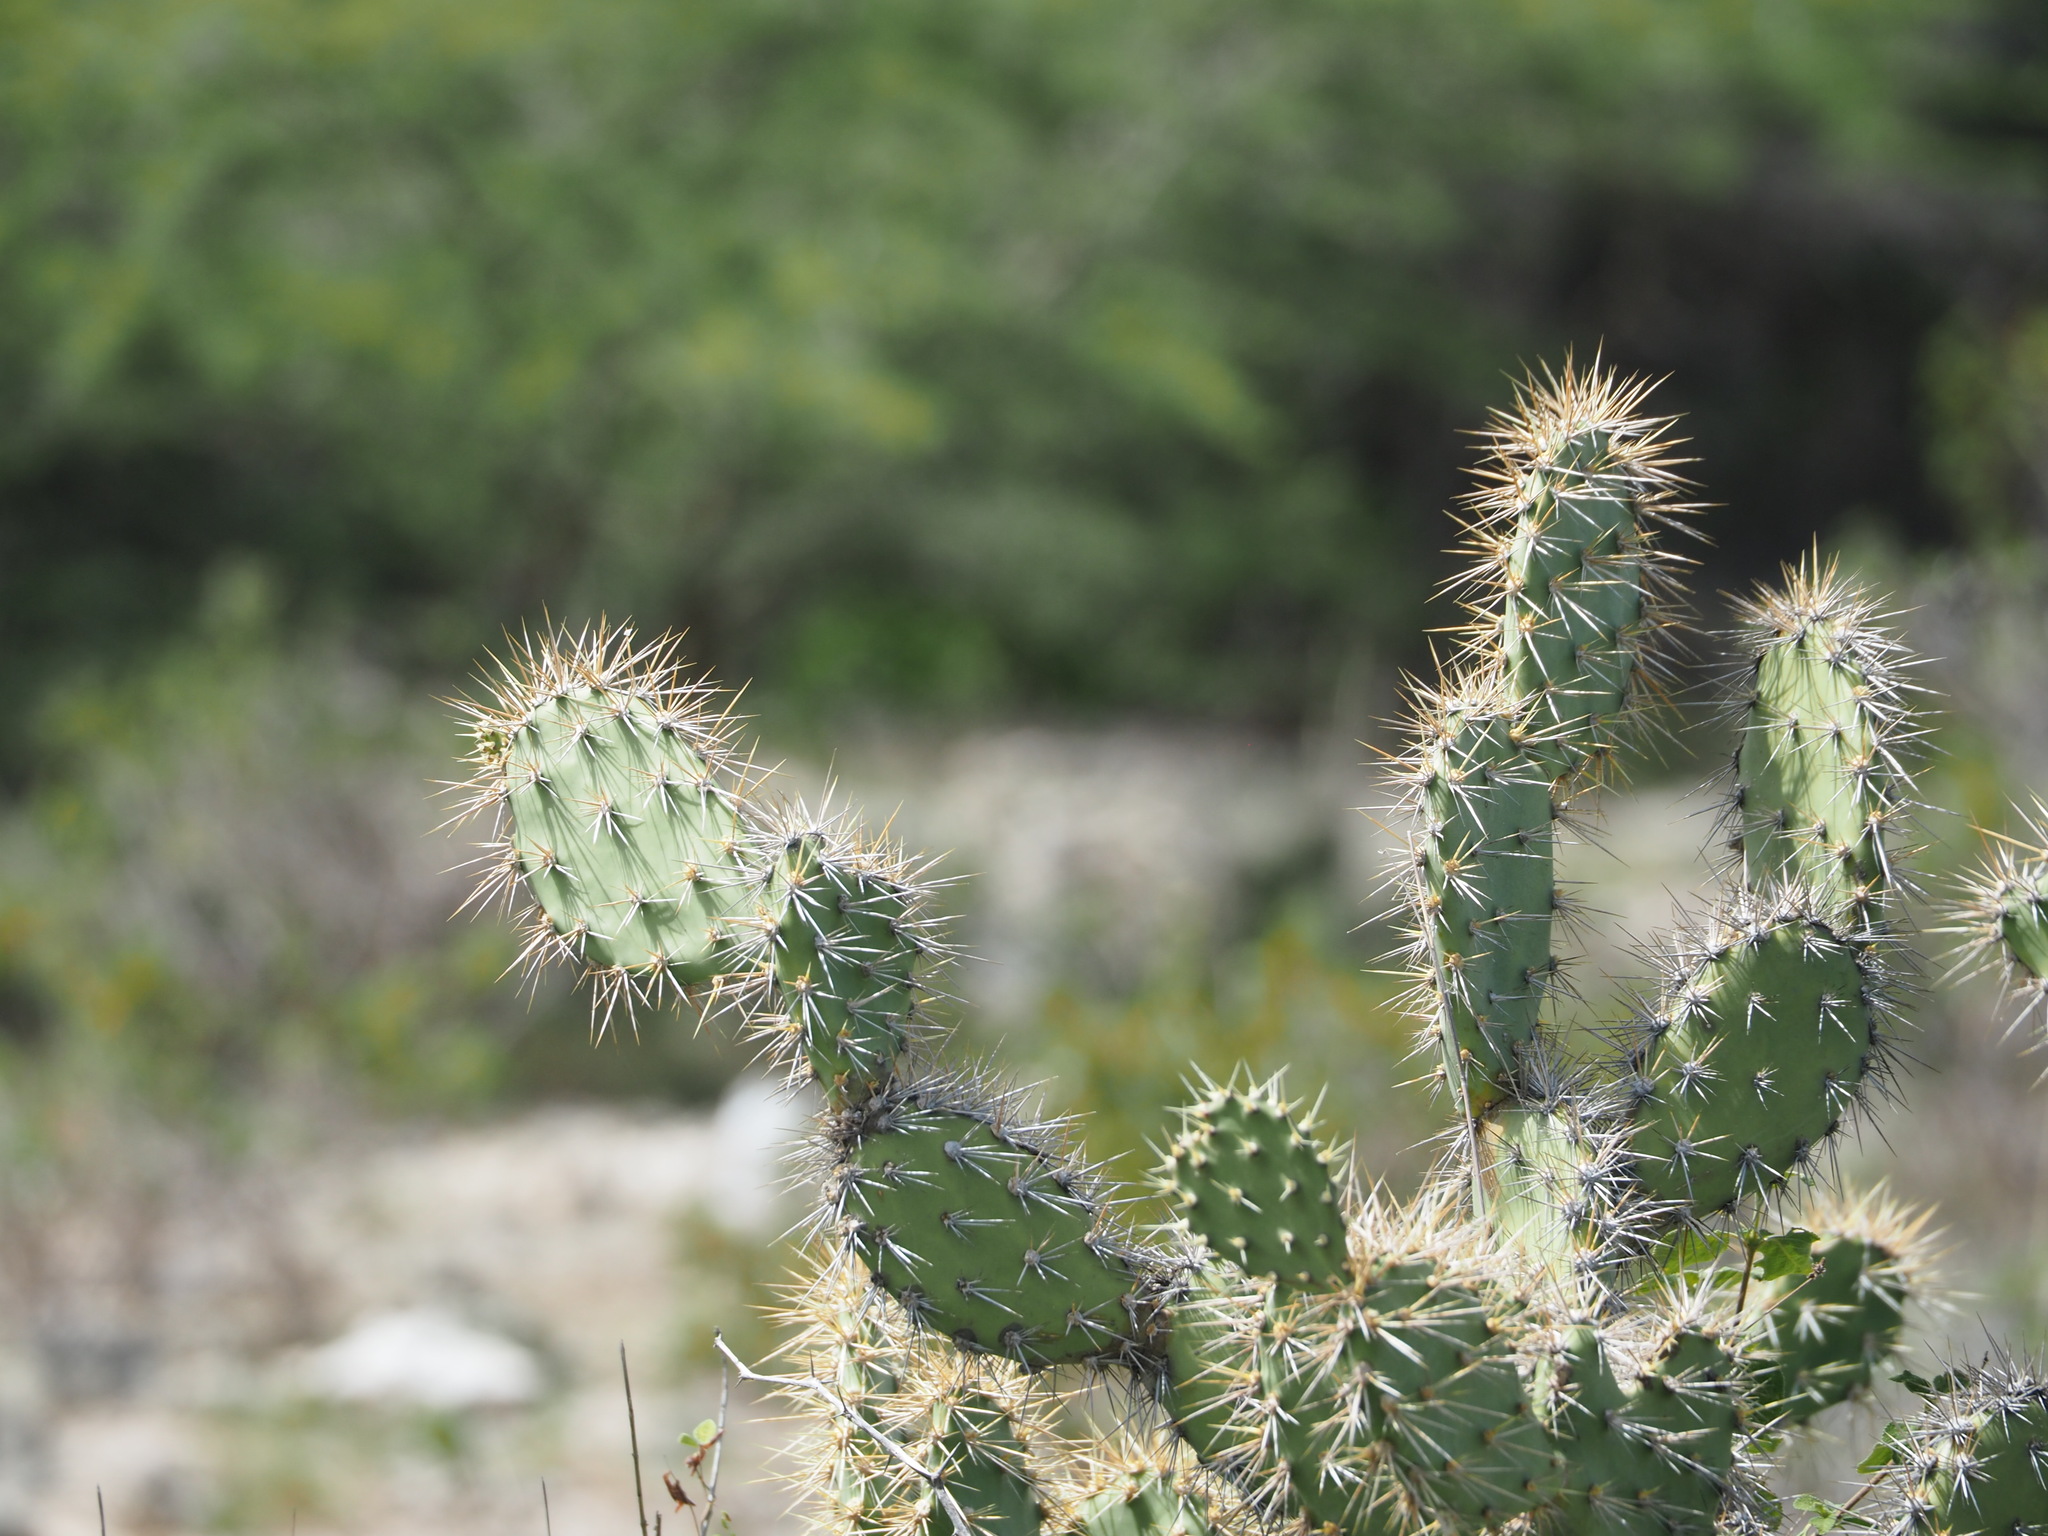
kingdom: Plantae
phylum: Tracheophyta
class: Magnoliopsida
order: Caryophyllales
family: Cactaceae
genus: Opuntia
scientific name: Opuntia caracassana
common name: Common prickly pear
